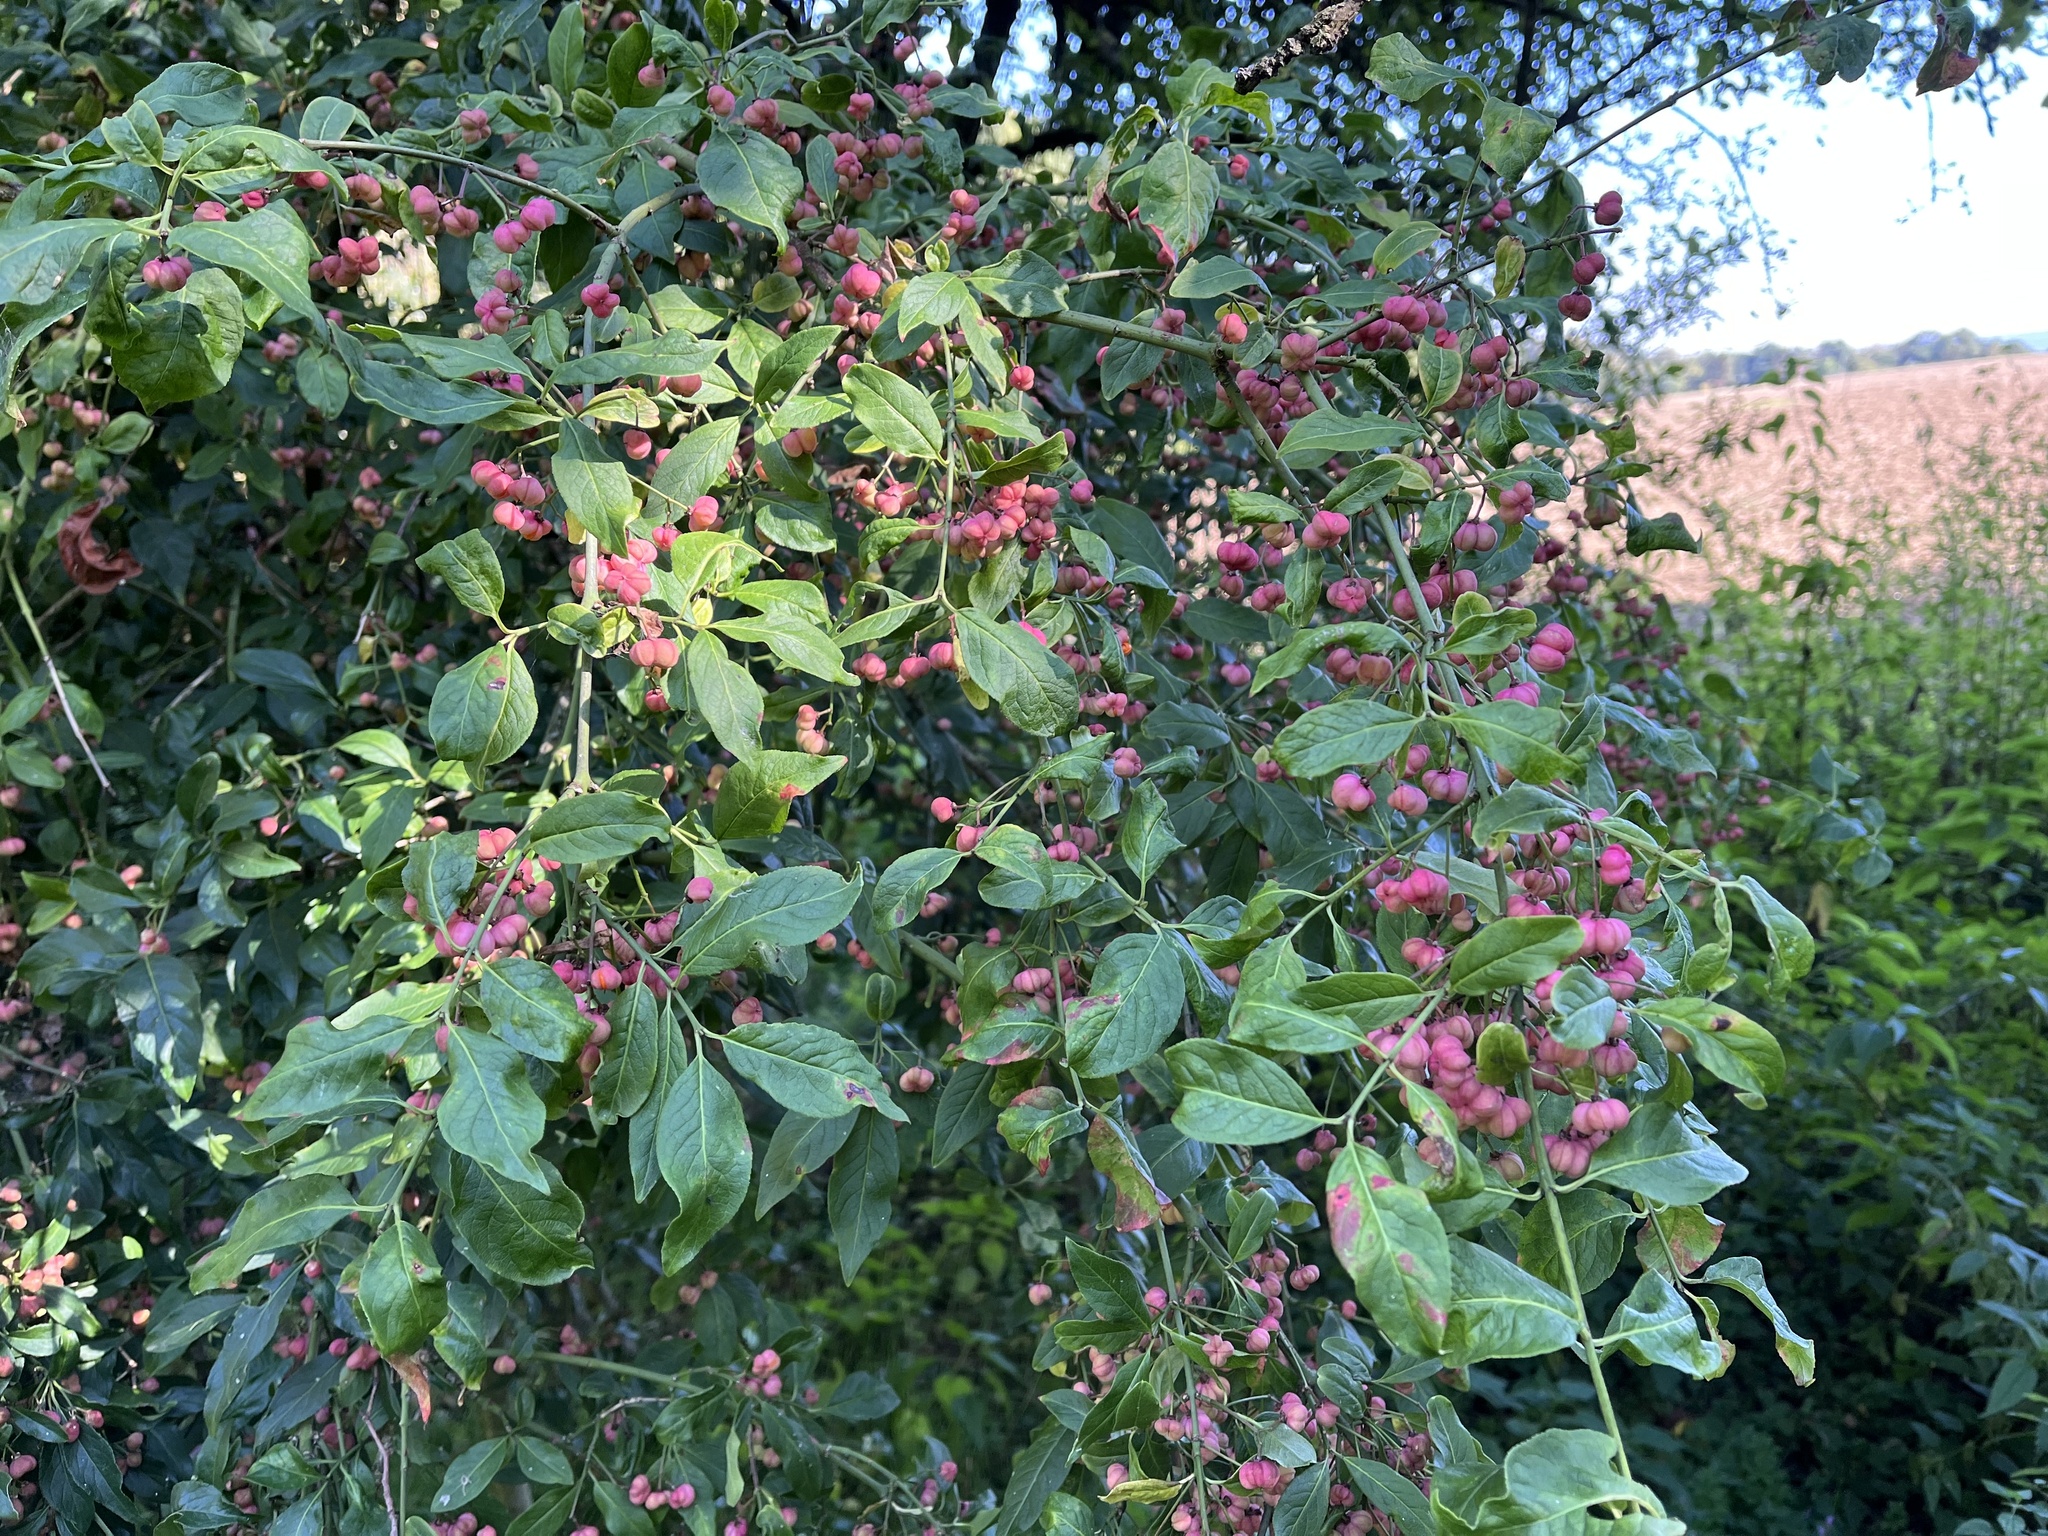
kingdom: Plantae
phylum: Tracheophyta
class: Magnoliopsida
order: Celastrales
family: Celastraceae
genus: Euonymus
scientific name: Euonymus europaeus
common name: Spindle
